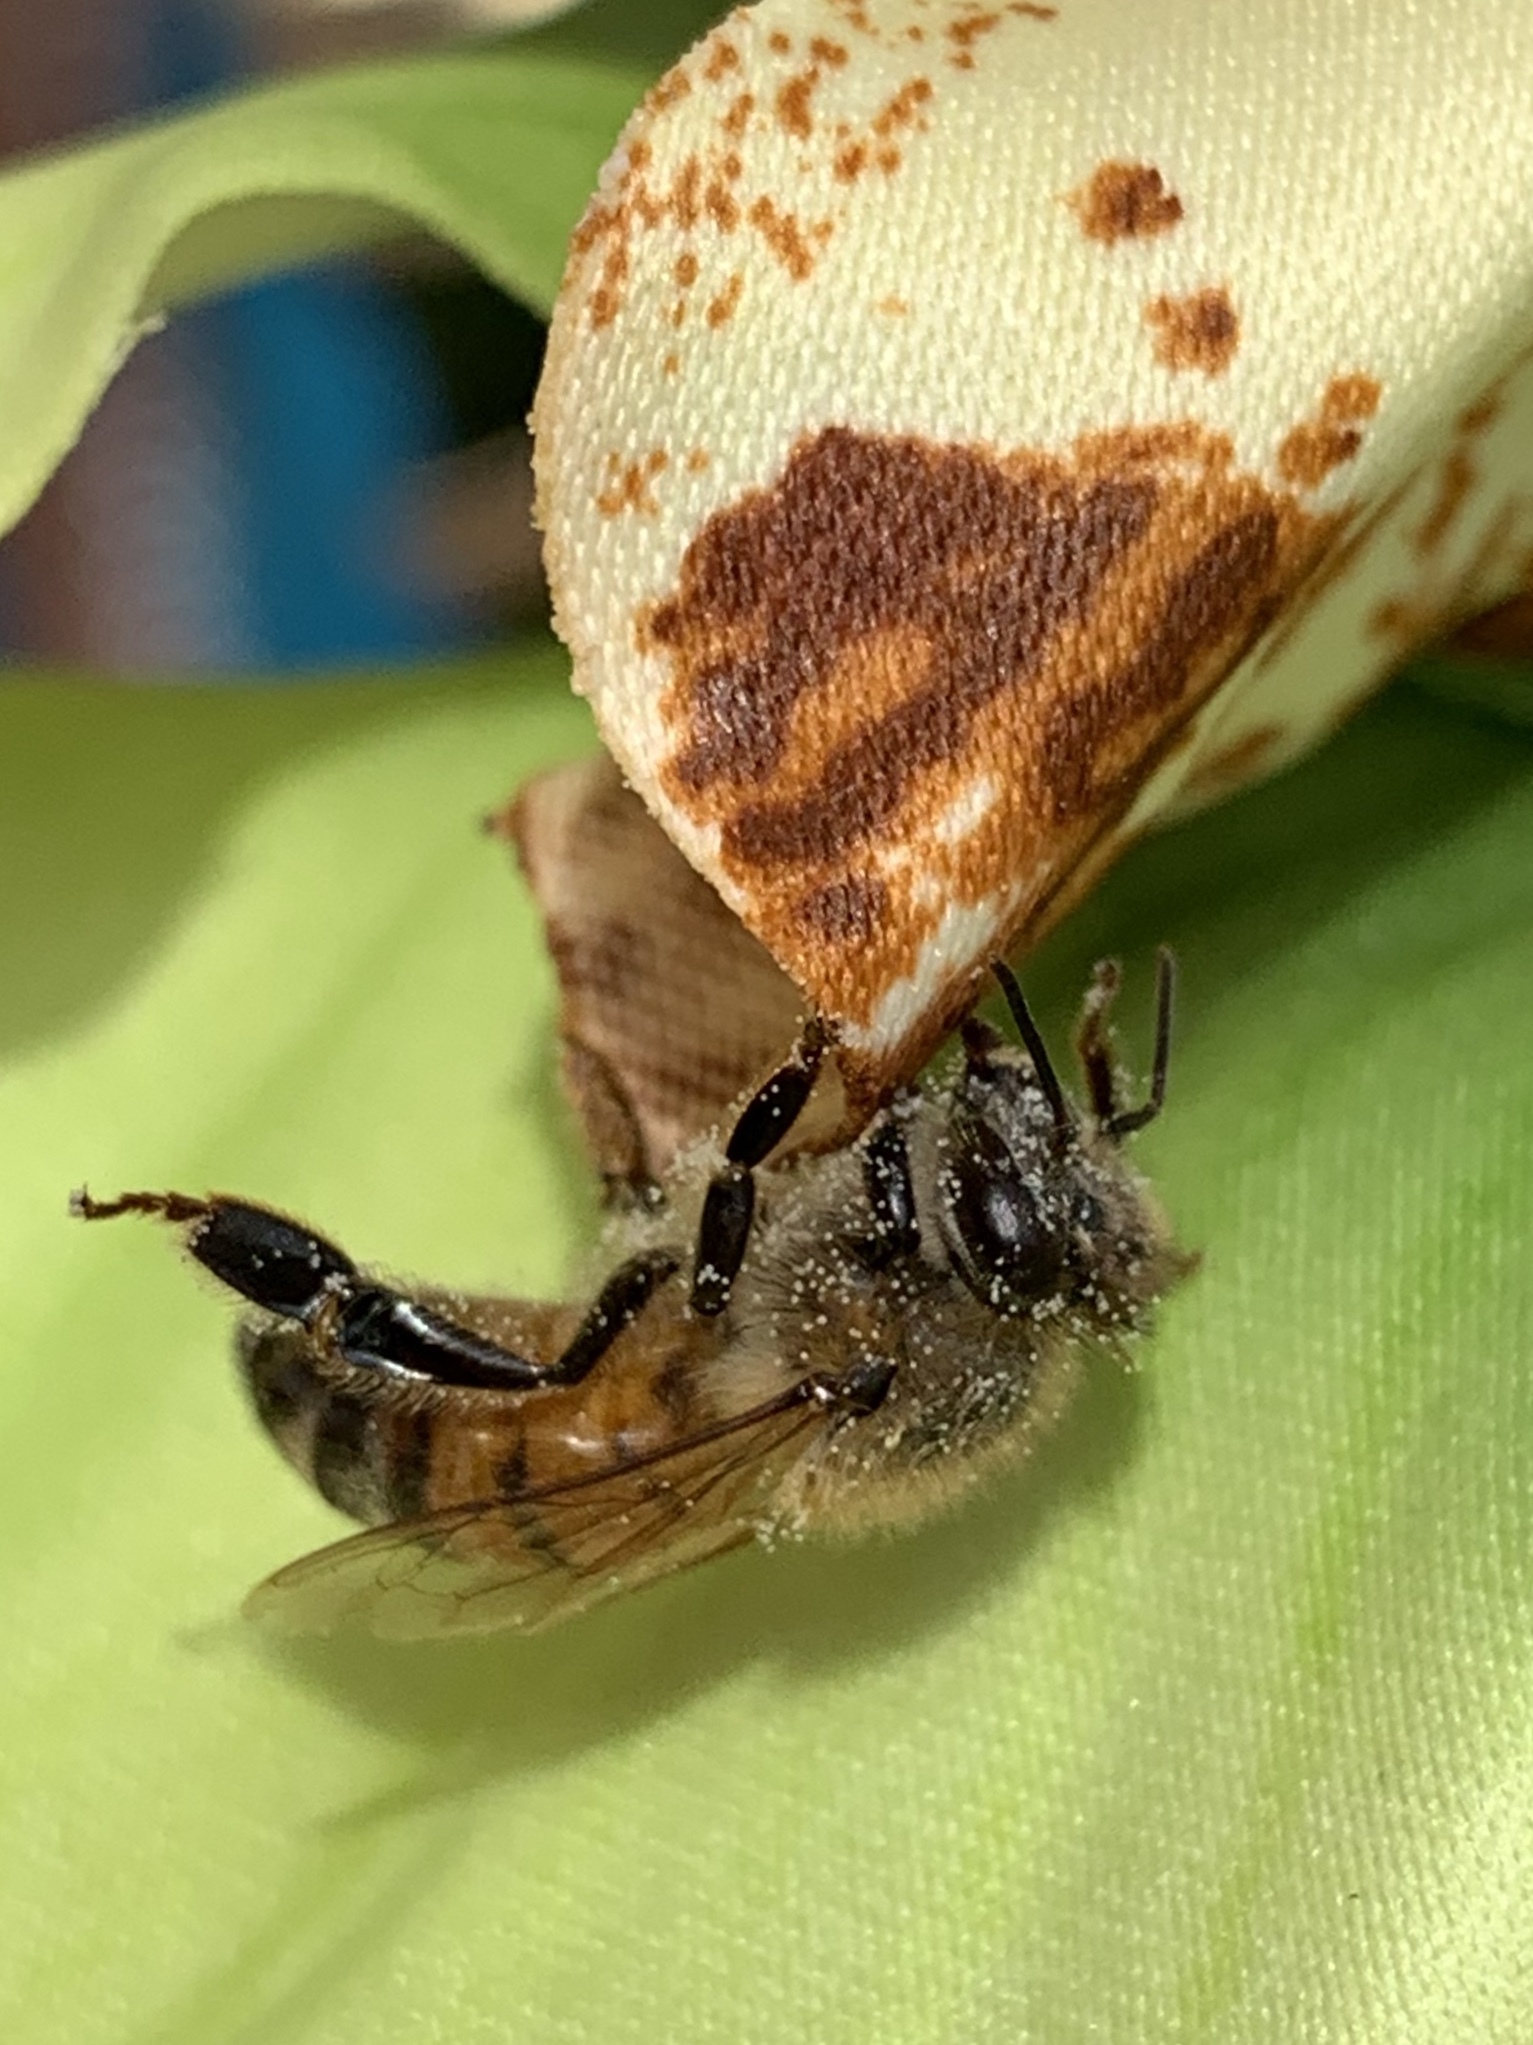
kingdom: Animalia
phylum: Arthropoda
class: Insecta
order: Hymenoptera
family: Apidae
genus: Apis
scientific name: Apis mellifera
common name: Honey bee
